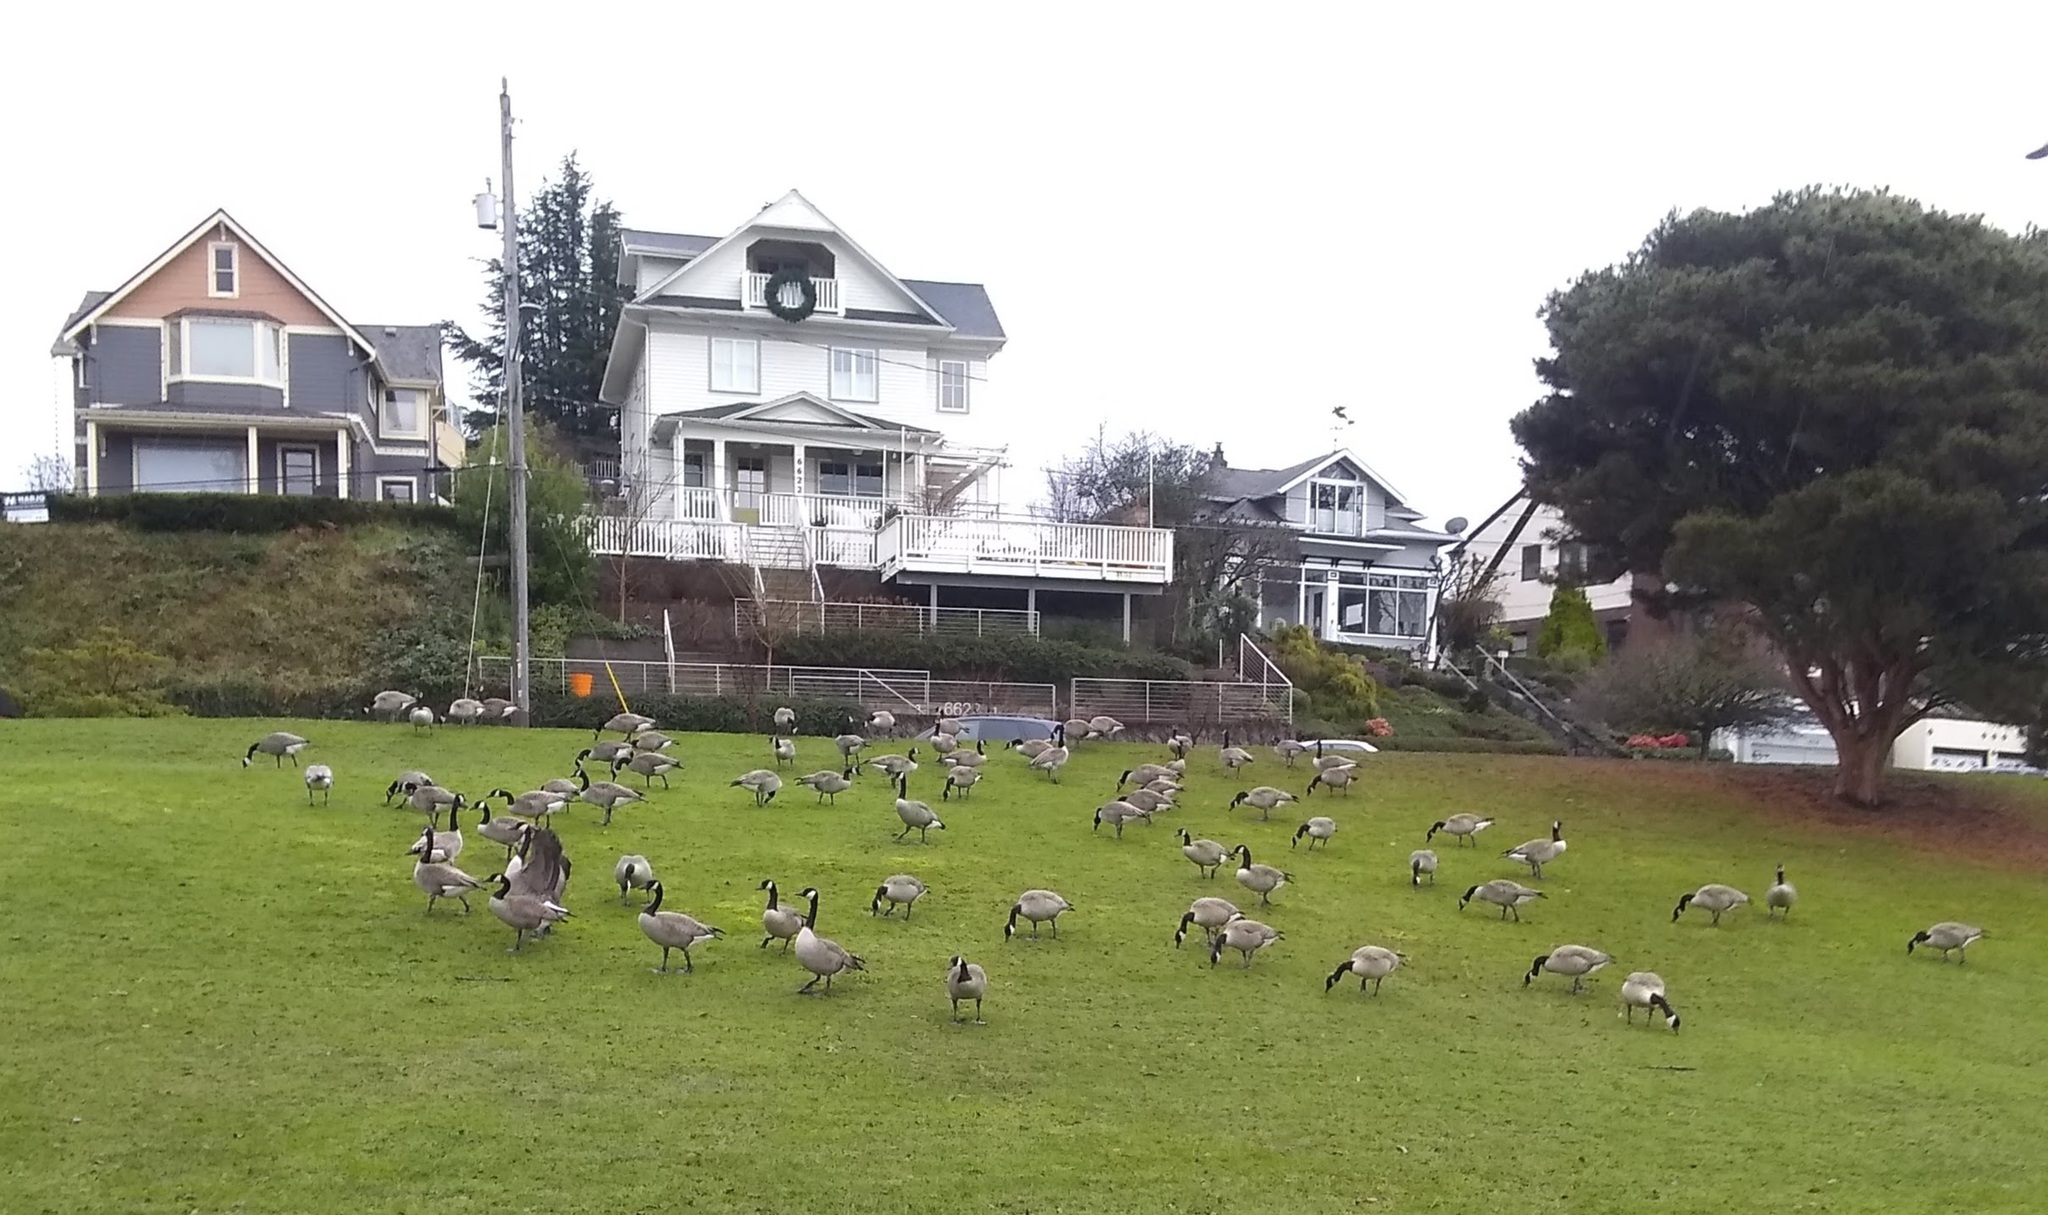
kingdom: Animalia
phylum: Chordata
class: Aves
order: Anseriformes
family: Anatidae
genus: Branta
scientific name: Branta canadensis
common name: Canada goose
